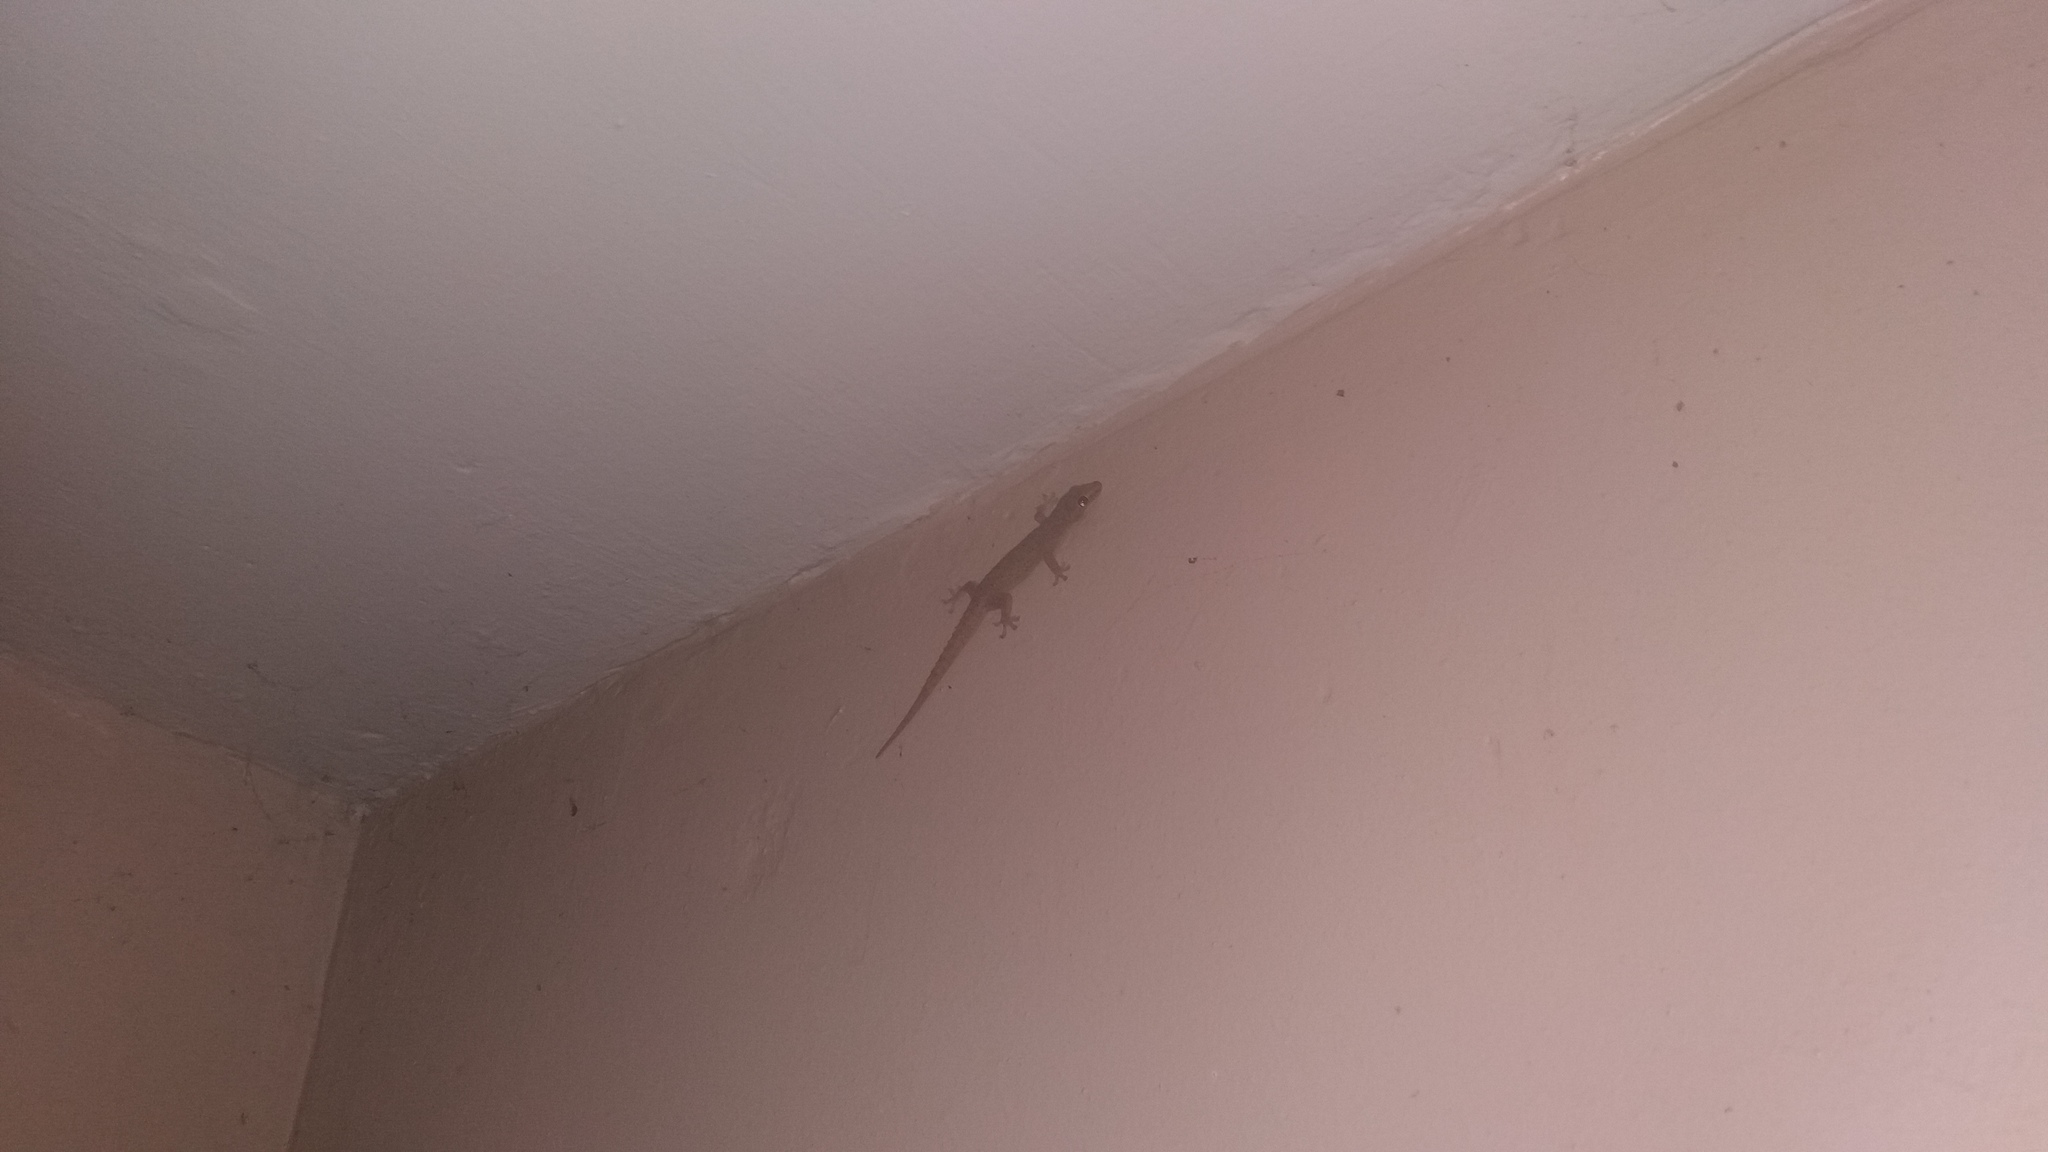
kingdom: Animalia
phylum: Chordata
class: Squamata
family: Gekkonidae
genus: Hemidactylus
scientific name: Hemidactylus frenatus
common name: Common house gecko
